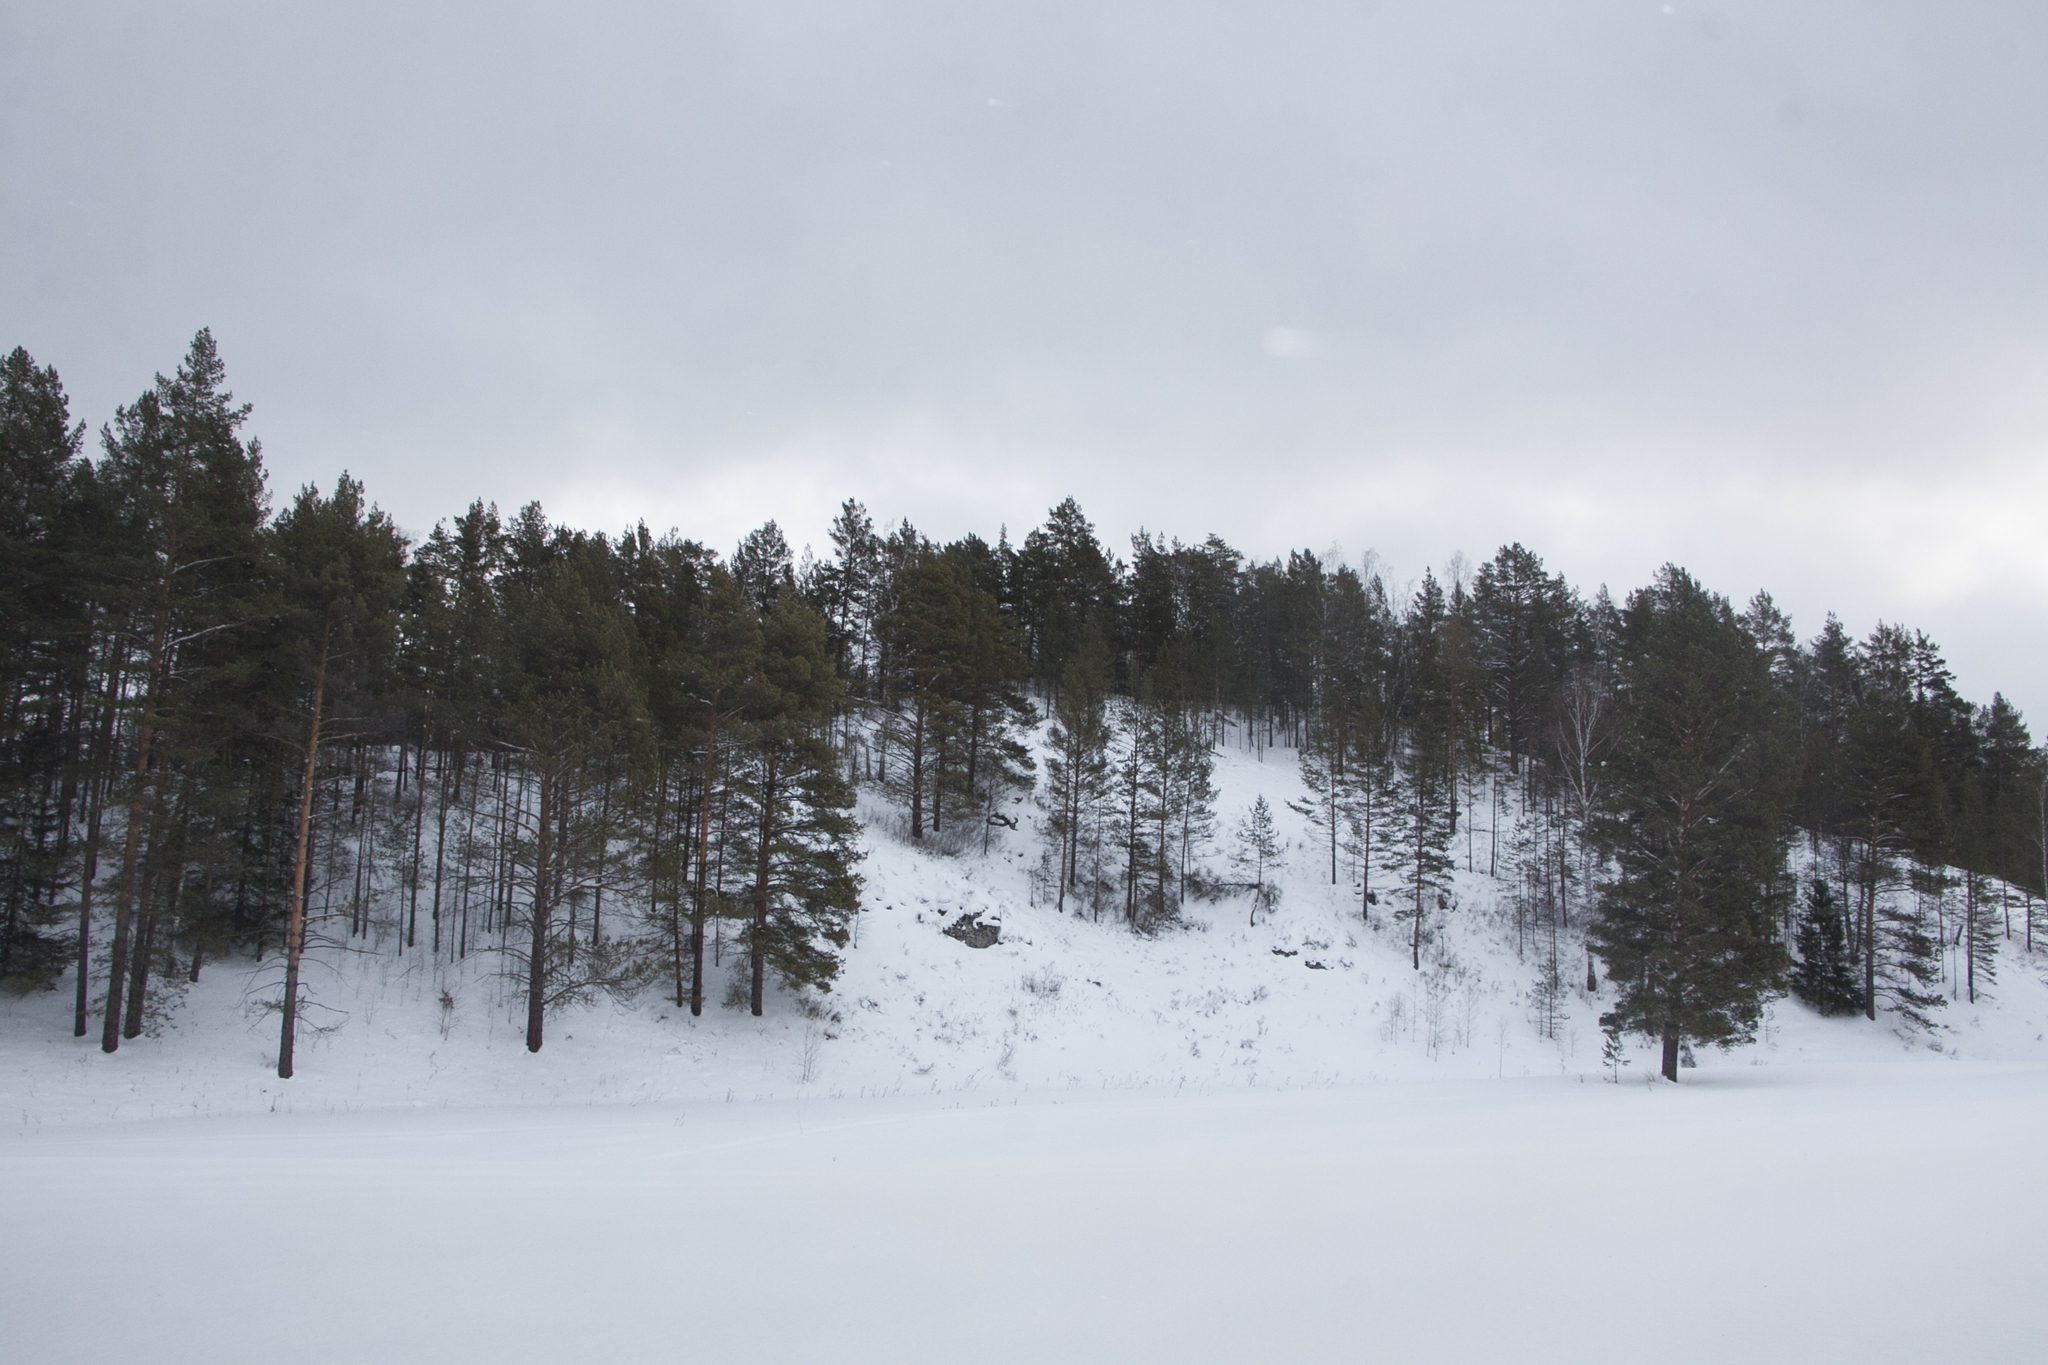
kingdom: Plantae
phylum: Tracheophyta
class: Pinopsida
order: Pinales
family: Pinaceae
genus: Pinus
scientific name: Pinus sylvestris
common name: Scots pine
